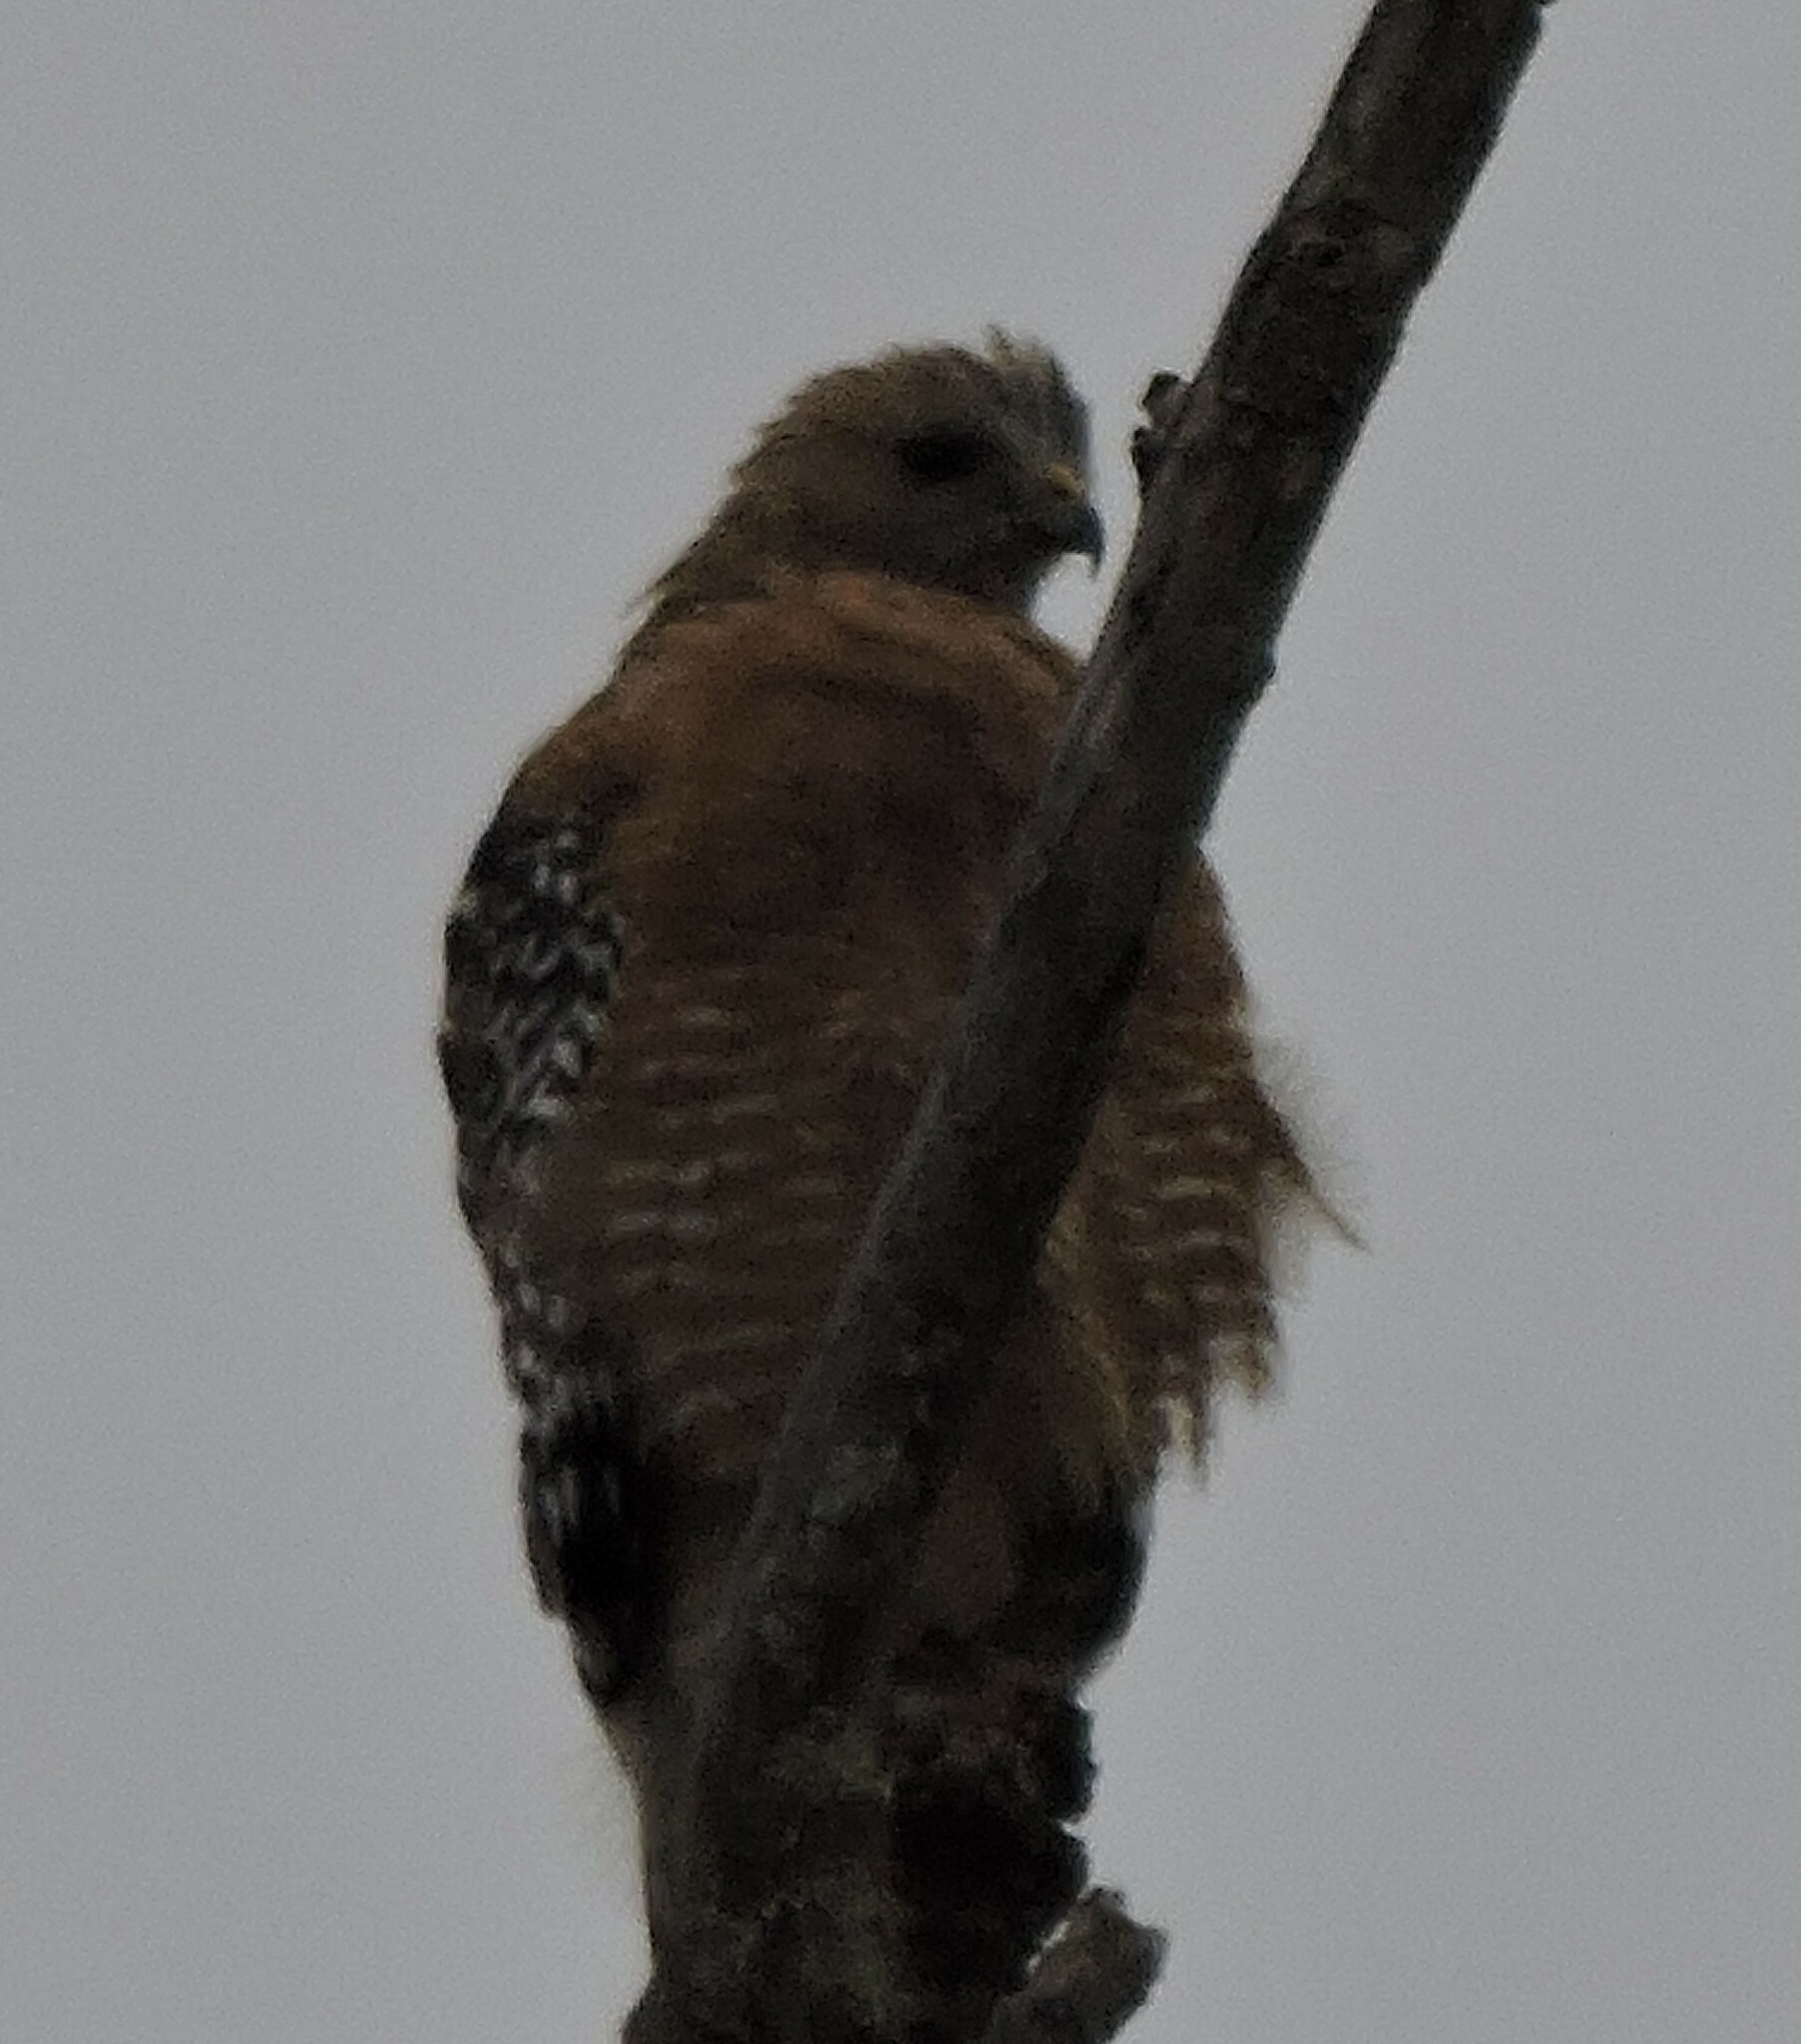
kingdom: Animalia
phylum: Chordata
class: Aves
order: Accipitriformes
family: Accipitridae
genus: Buteo
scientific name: Buteo lineatus
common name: Red-shouldered hawk
